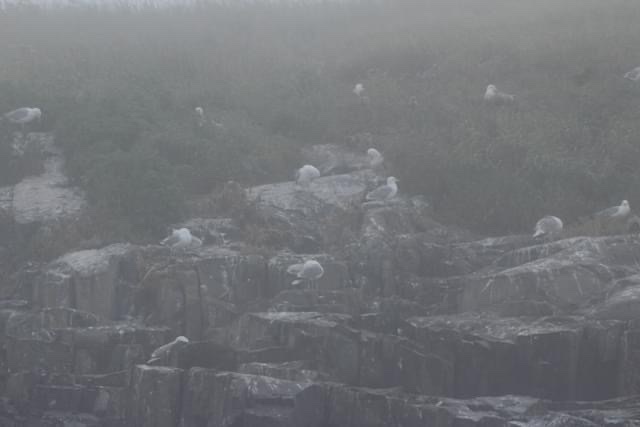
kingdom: Animalia
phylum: Chordata
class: Aves
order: Charadriiformes
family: Laridae
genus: Larus
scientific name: Larus argentatus
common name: Herring gull
